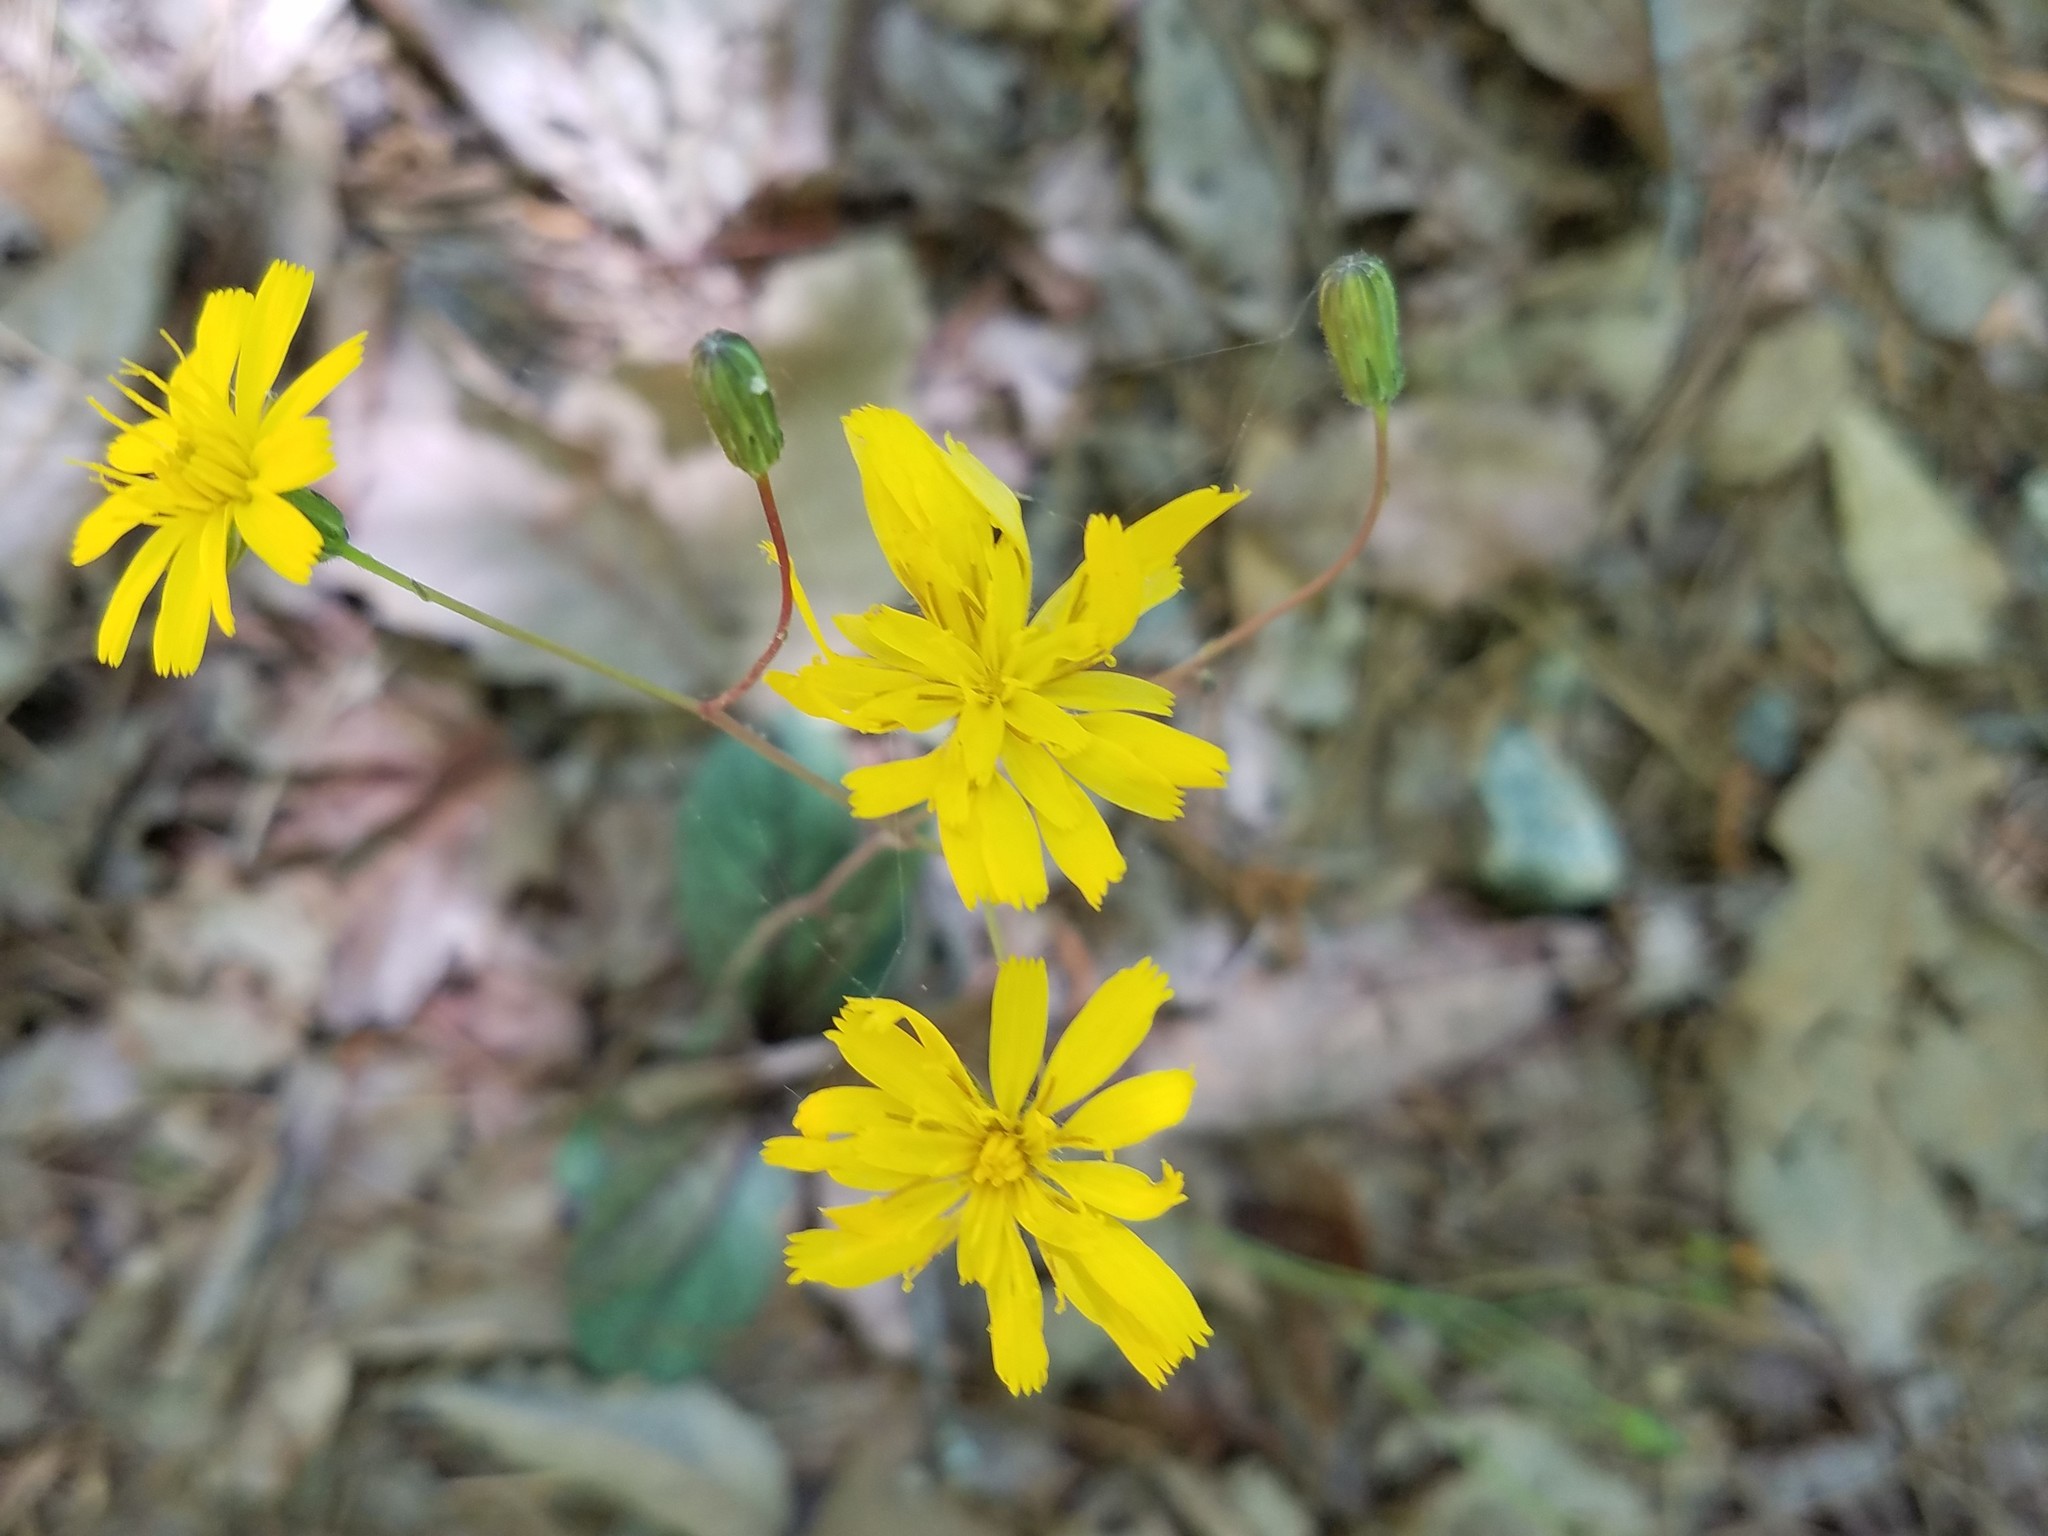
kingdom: Plantae
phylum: Tracheophyta
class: Magnoliopsida
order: Asterales
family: Asteraceae
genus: Hieracium
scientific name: Hieracium venosum
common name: Rattlesnake hawkweed
